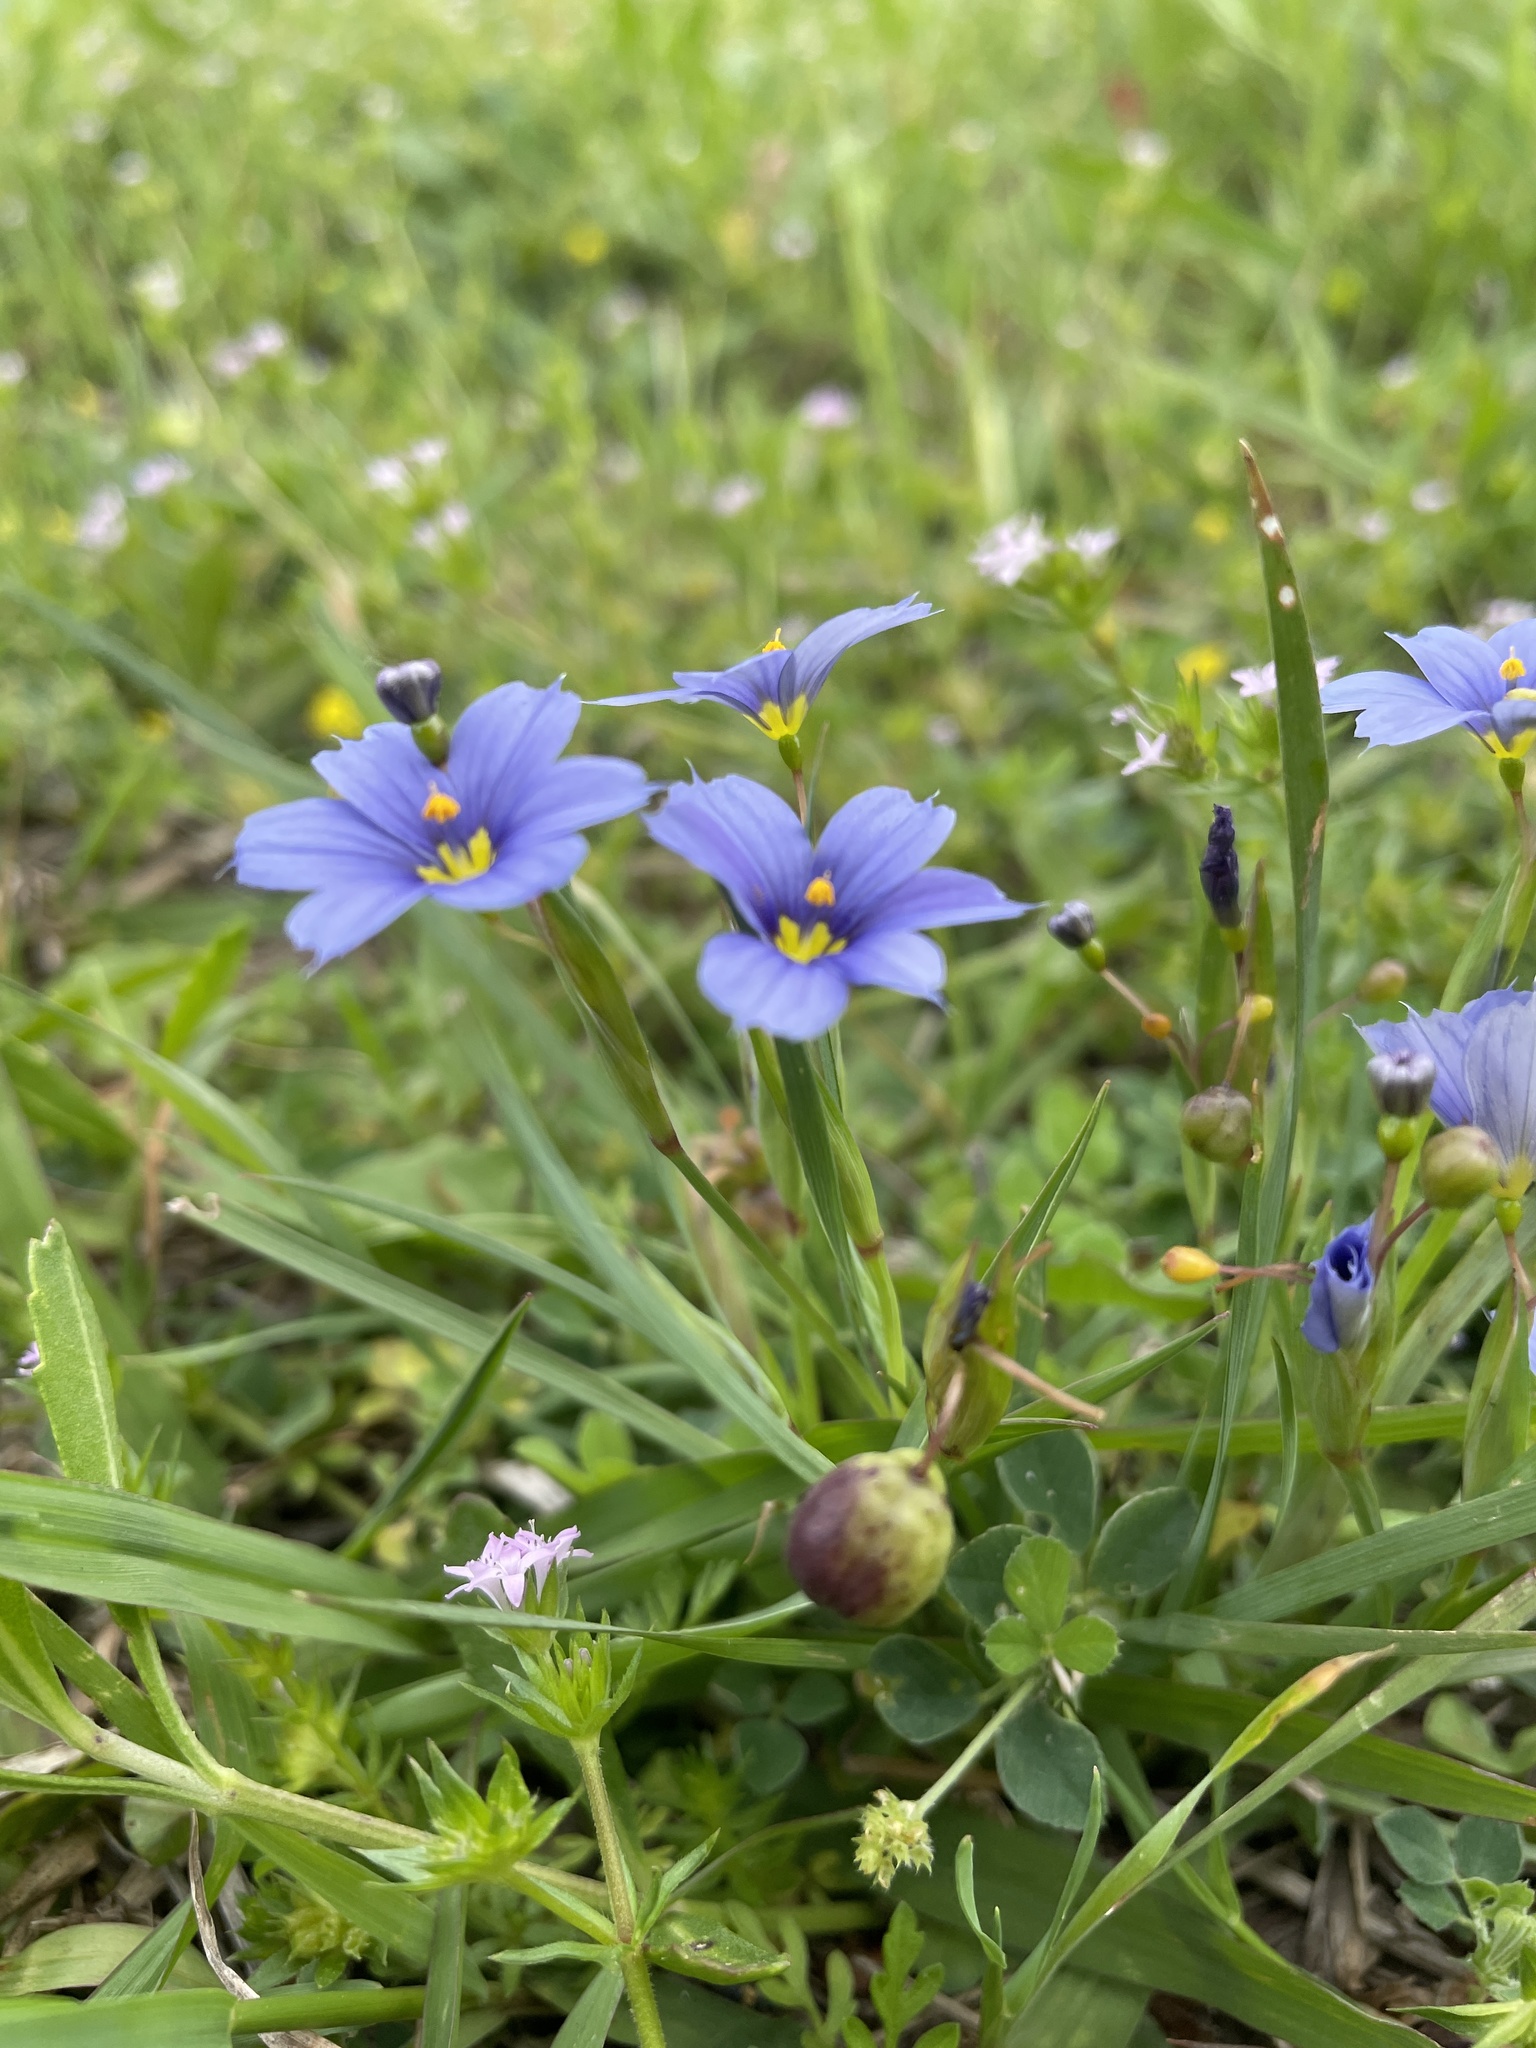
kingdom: Plantae
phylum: Tracheophyta
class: Liliopsida
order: Asparagales
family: Iridaceae
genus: Sisyrinchium
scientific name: Sisyrinchium pruinosum
